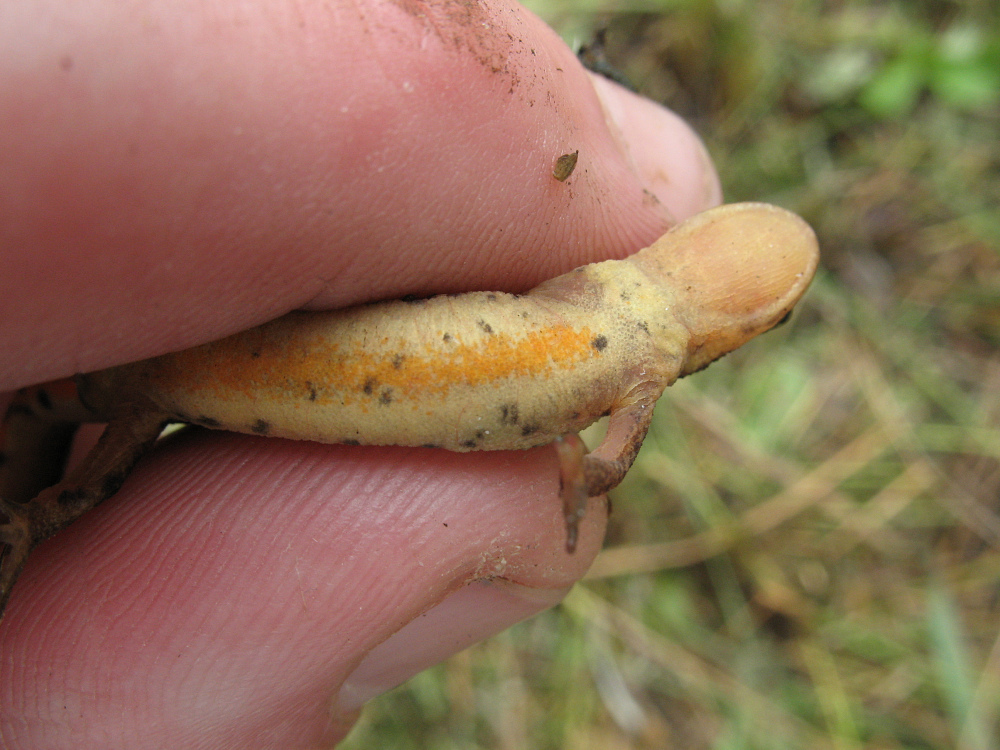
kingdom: Animalia
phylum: Chordata
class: Amphibia
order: Caudata
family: Salamandridae
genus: Lissotriton
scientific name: Lissotriton helveticus
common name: Palmate newt
